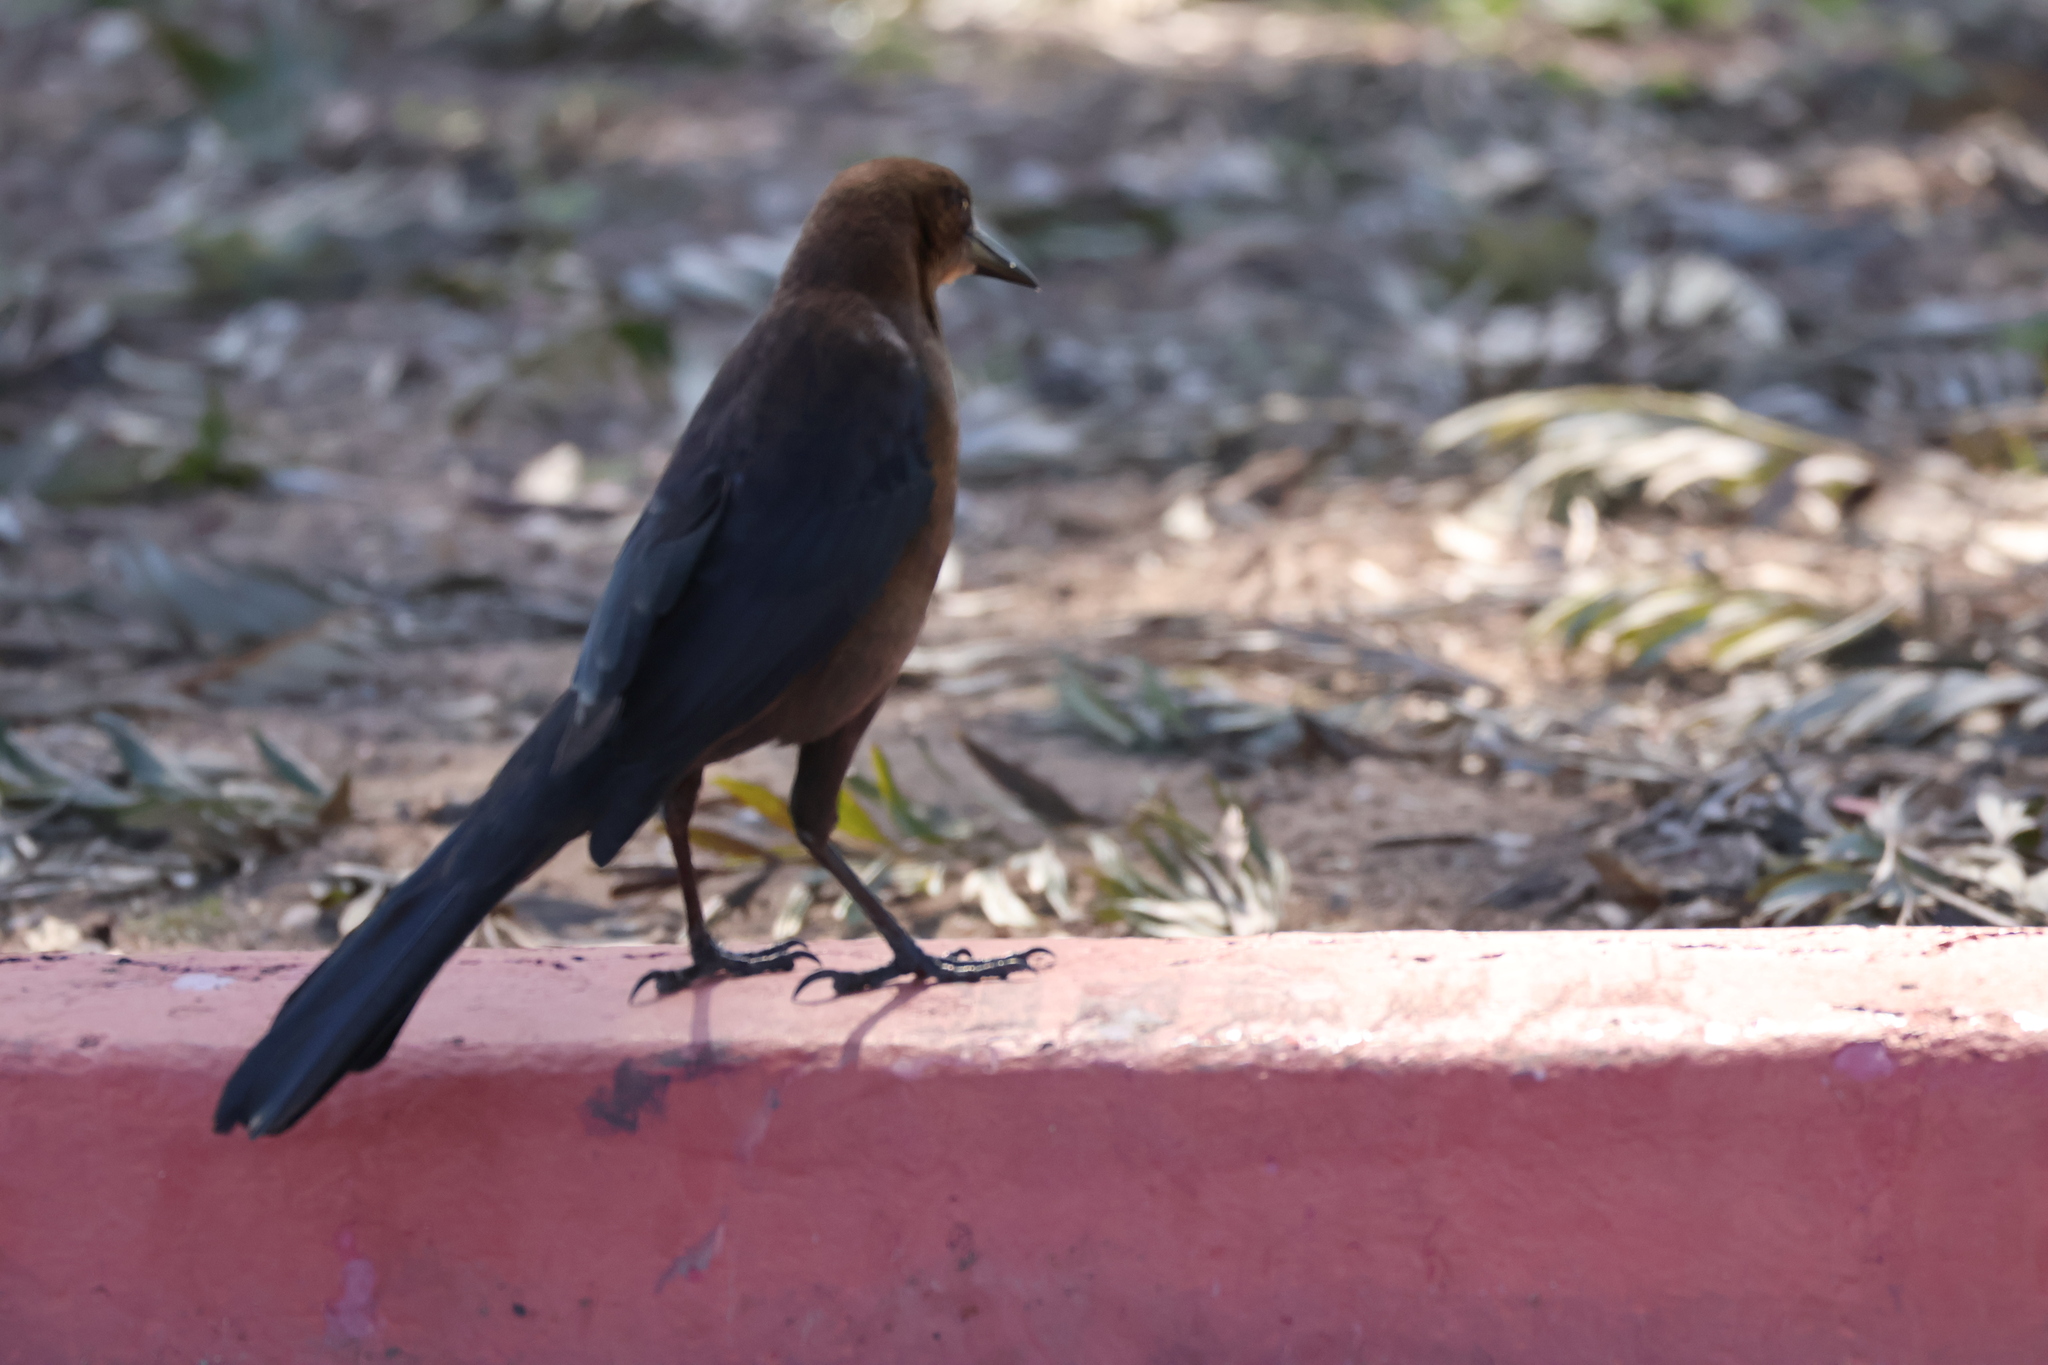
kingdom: Animalia
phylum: Chordata
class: Aves
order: Passeriformes
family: Icteridae
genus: Quiscalus
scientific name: Quiscalus mexicanus
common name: Great-tailed grackle
